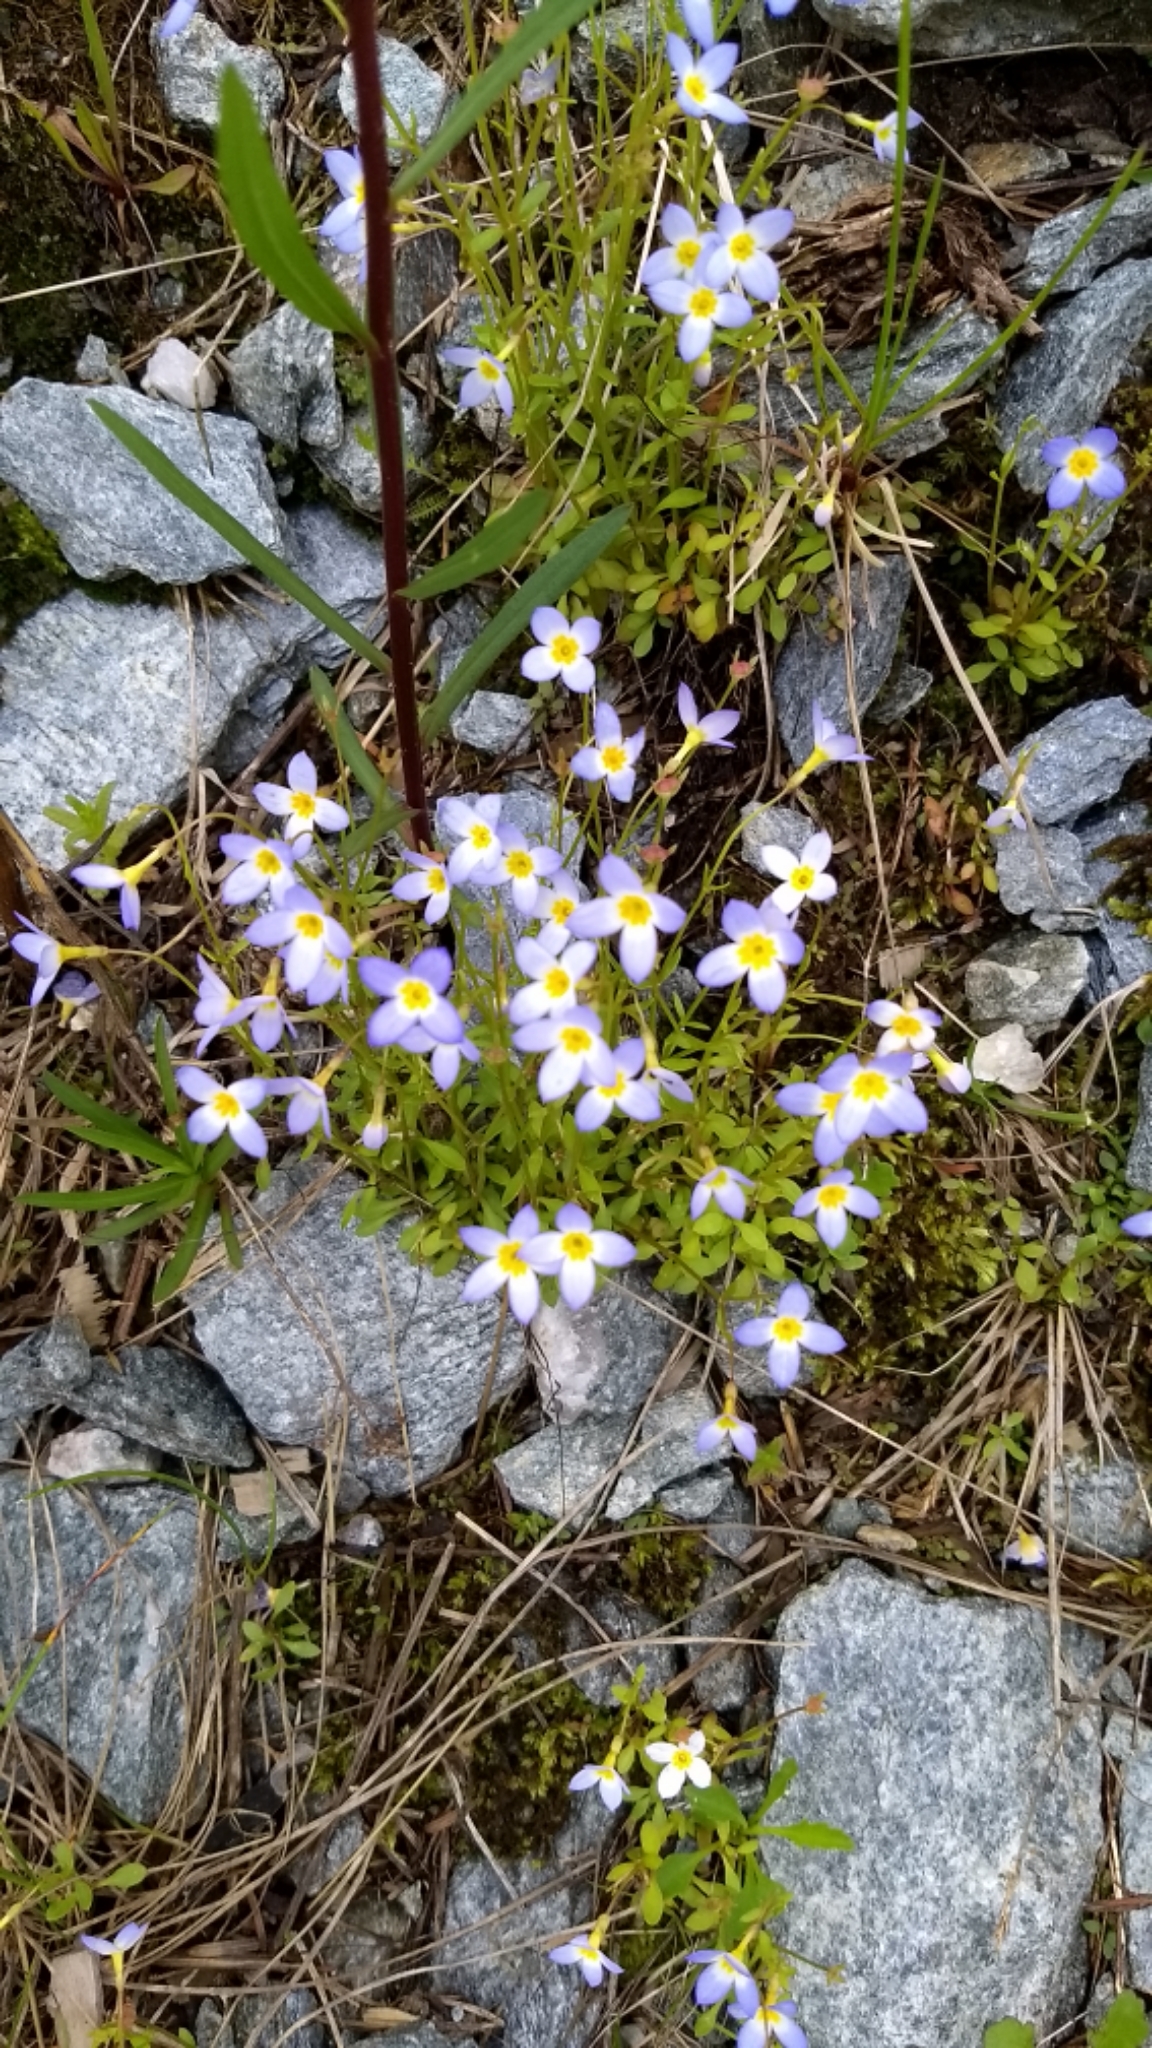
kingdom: Plantae
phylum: Tracheophyta
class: Magnoliopsida
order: Gentianales
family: Rubiaceae
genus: Houstonia
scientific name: Houstonia caerulea
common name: Bluets
